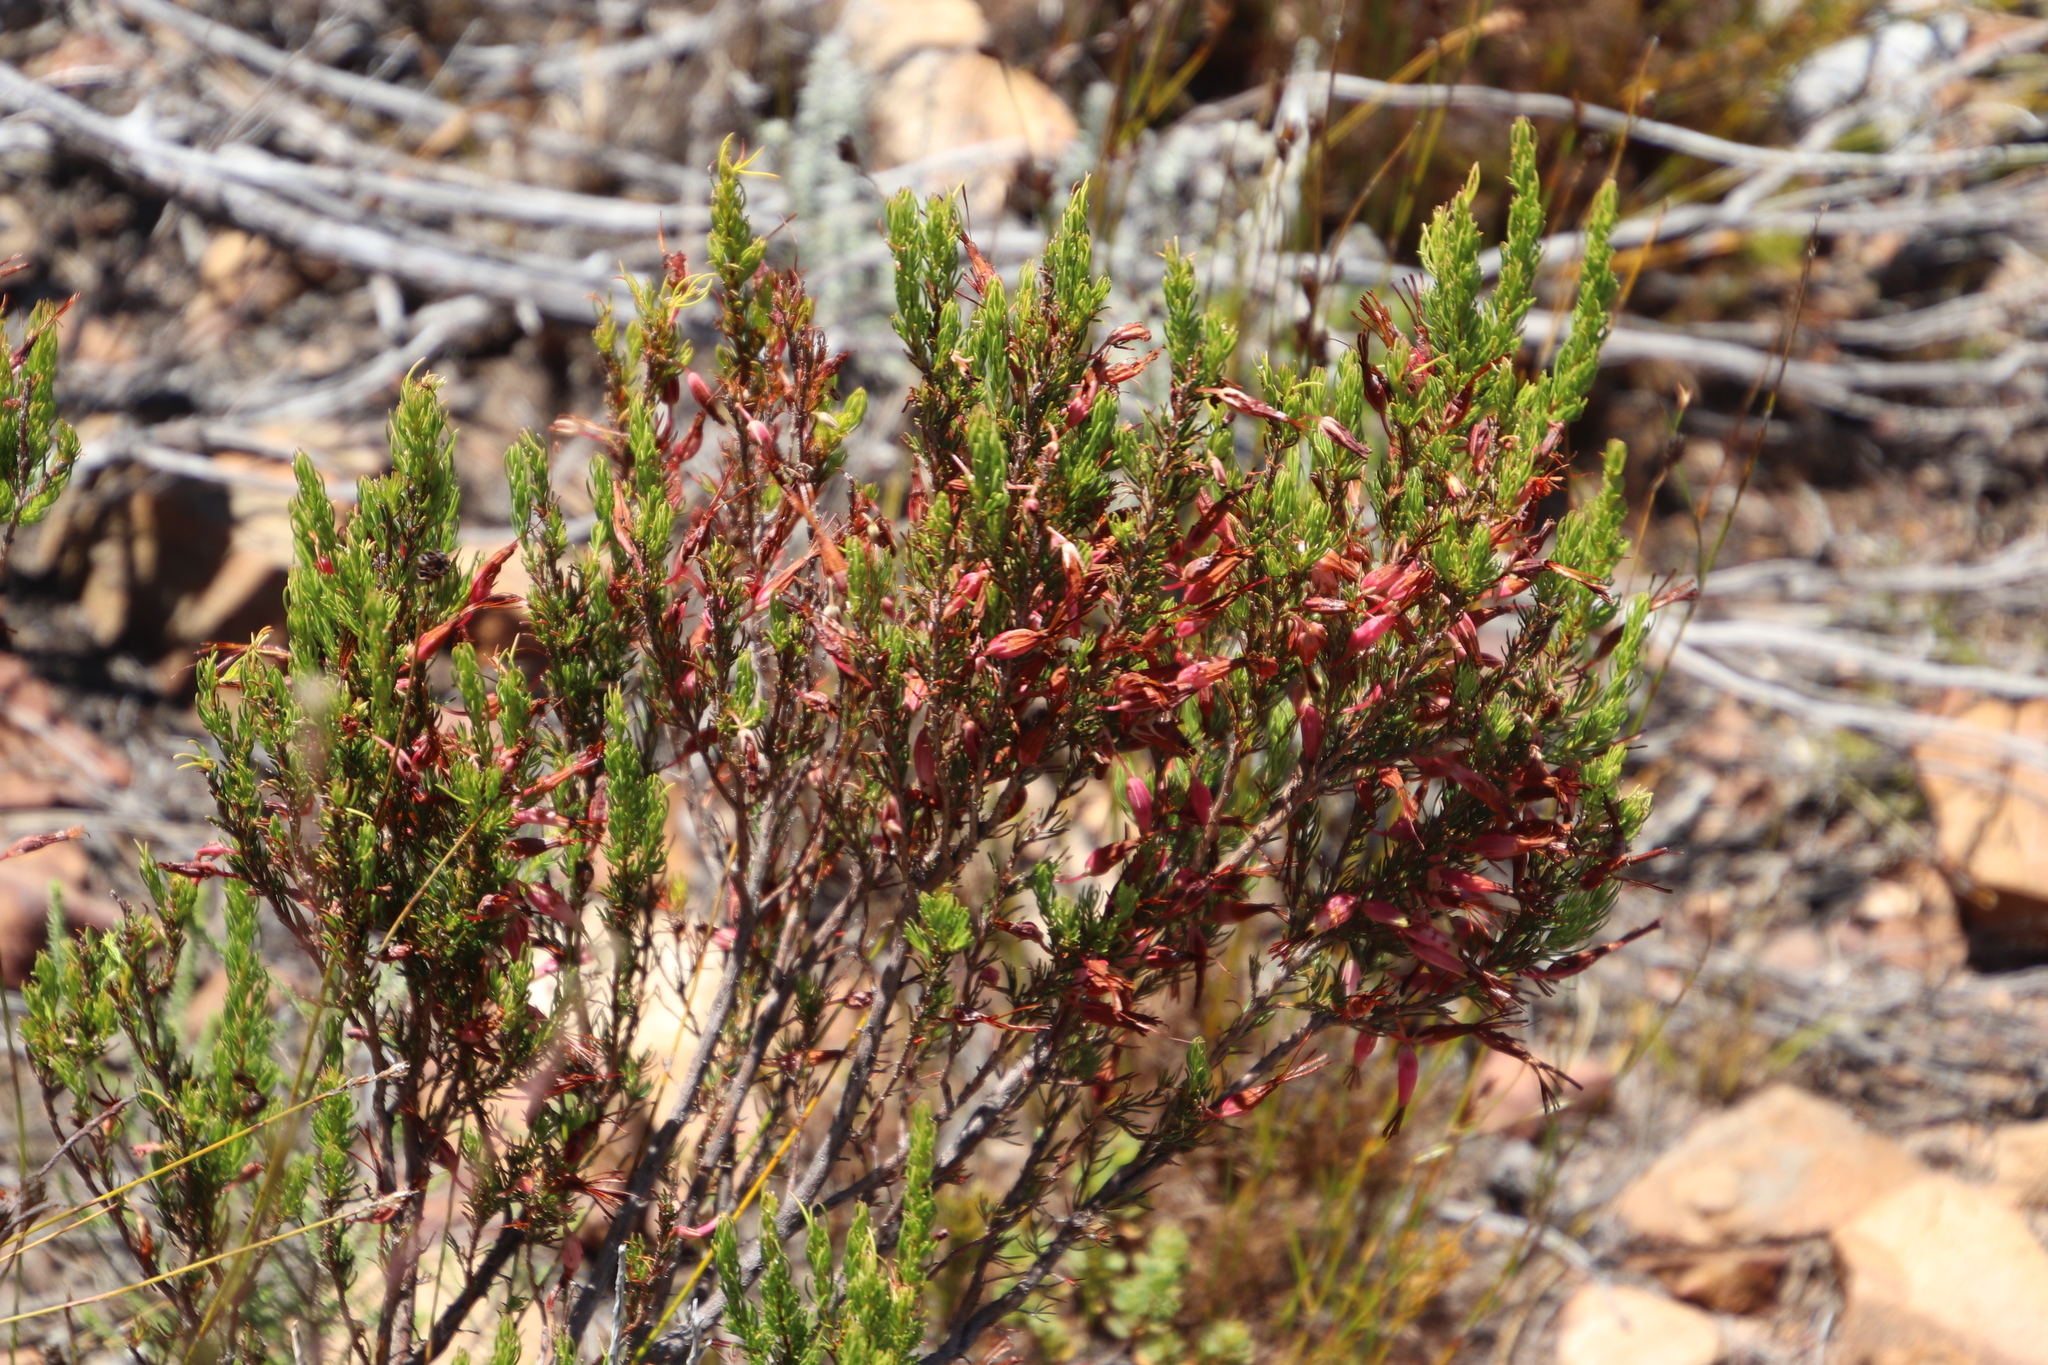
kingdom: Plantae
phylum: Tracheophyta
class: Magnoliopsida
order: Ericales
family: Ericaceae
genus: Erica
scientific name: Erica plukenetii
